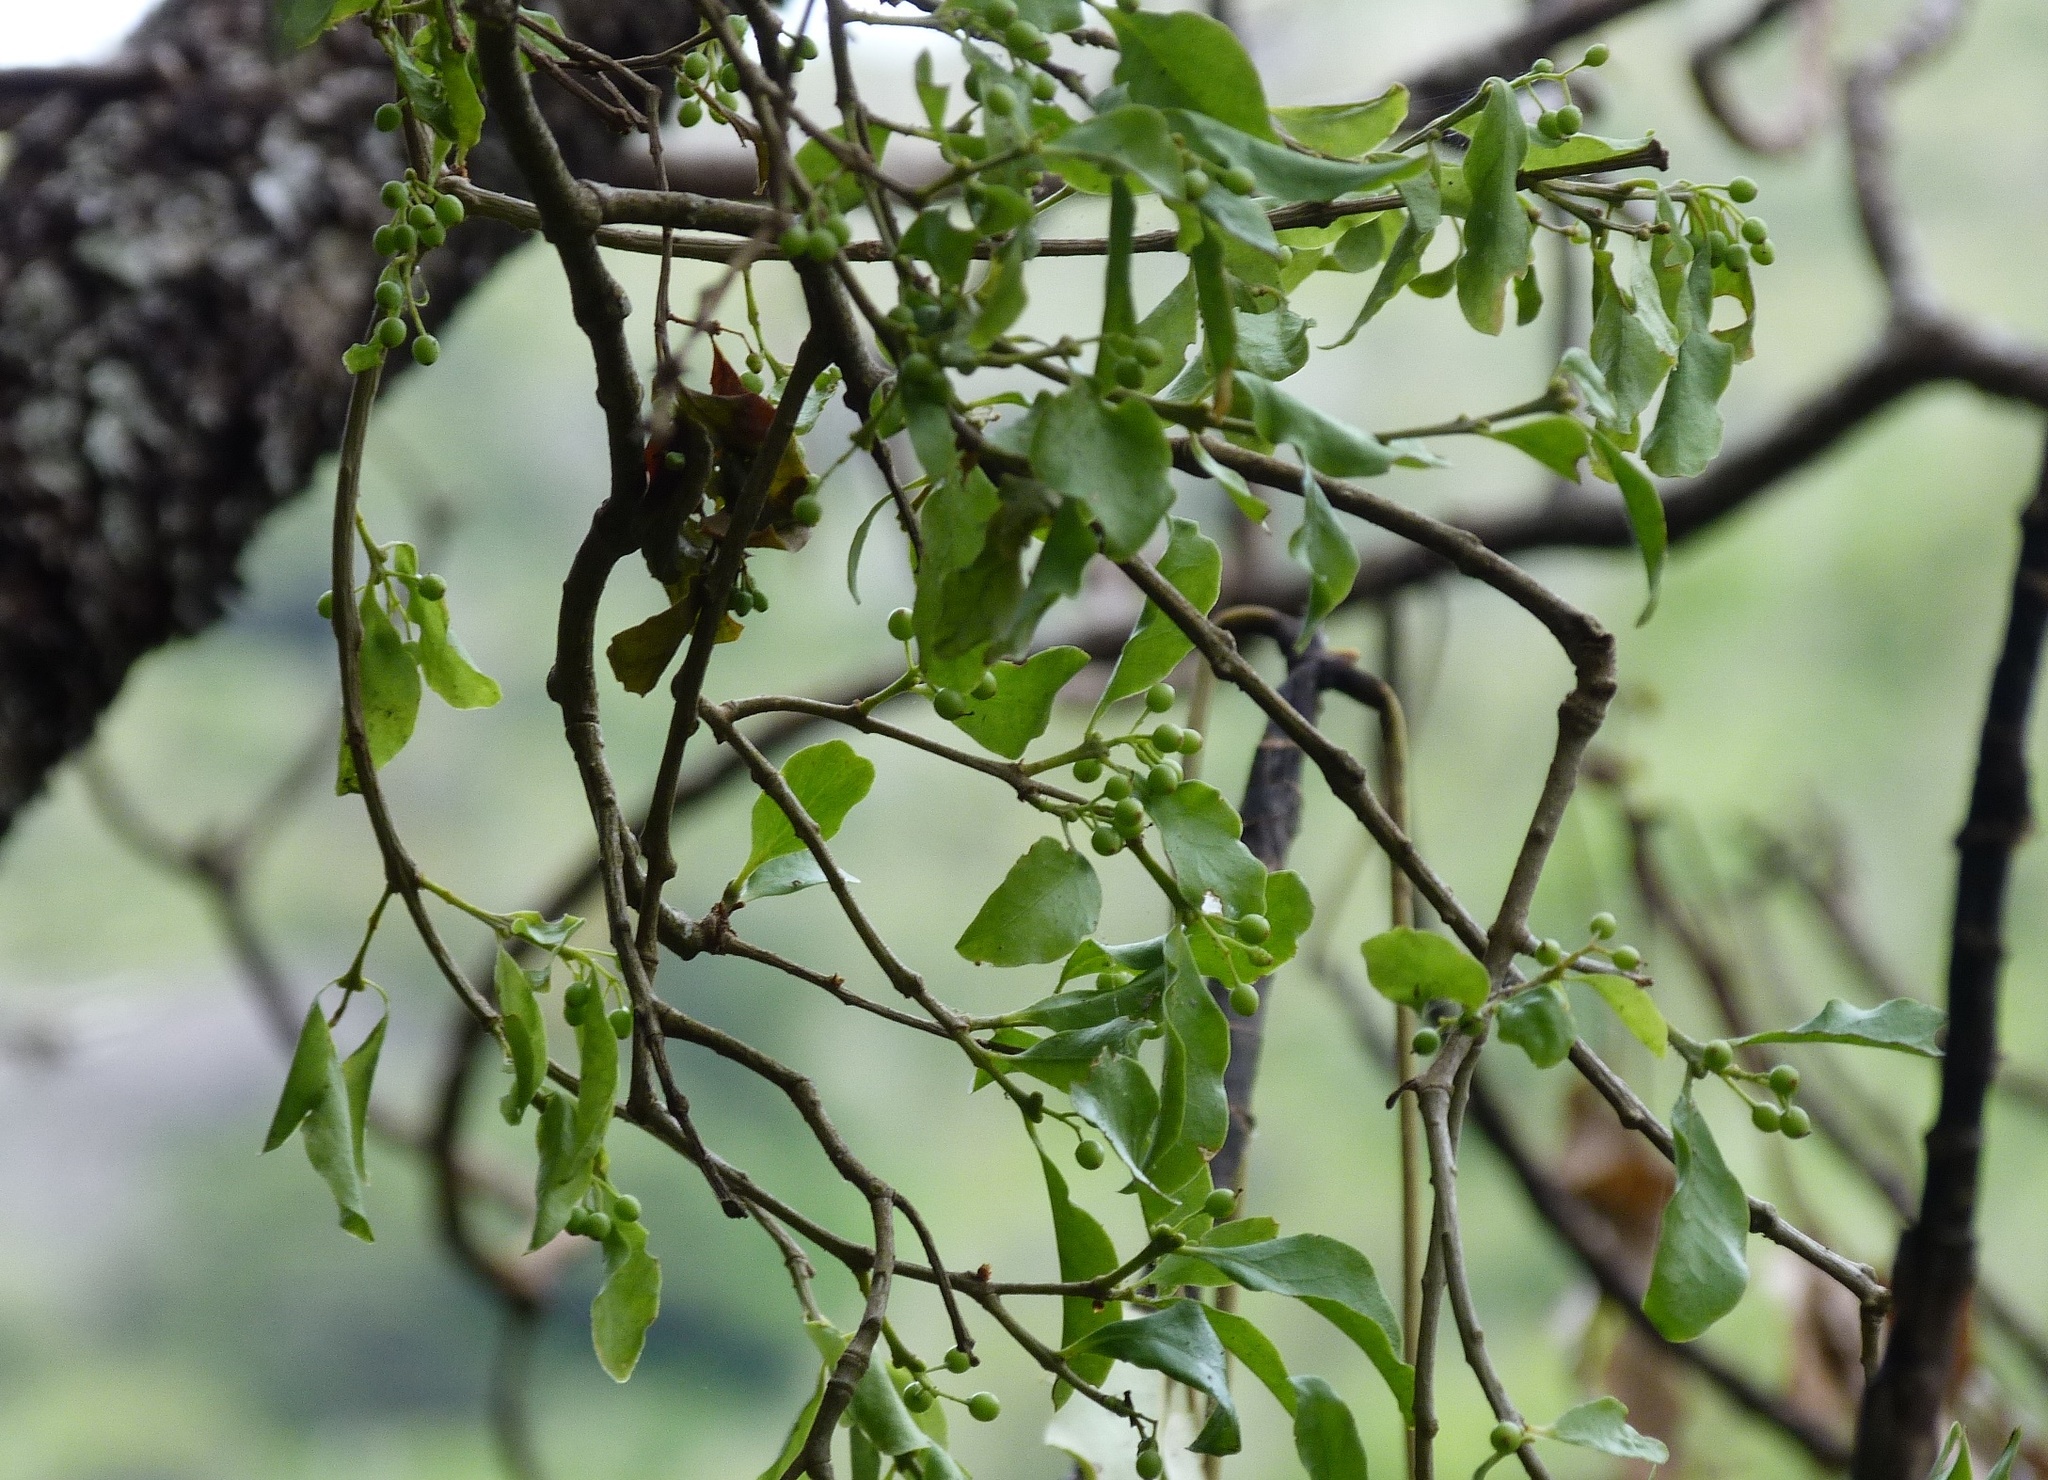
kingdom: Plantae
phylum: Tracheophyta
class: Magnoliopsida
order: Santalales
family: Loranthaceae
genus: Tupeia
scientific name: Tupeia antarctica
